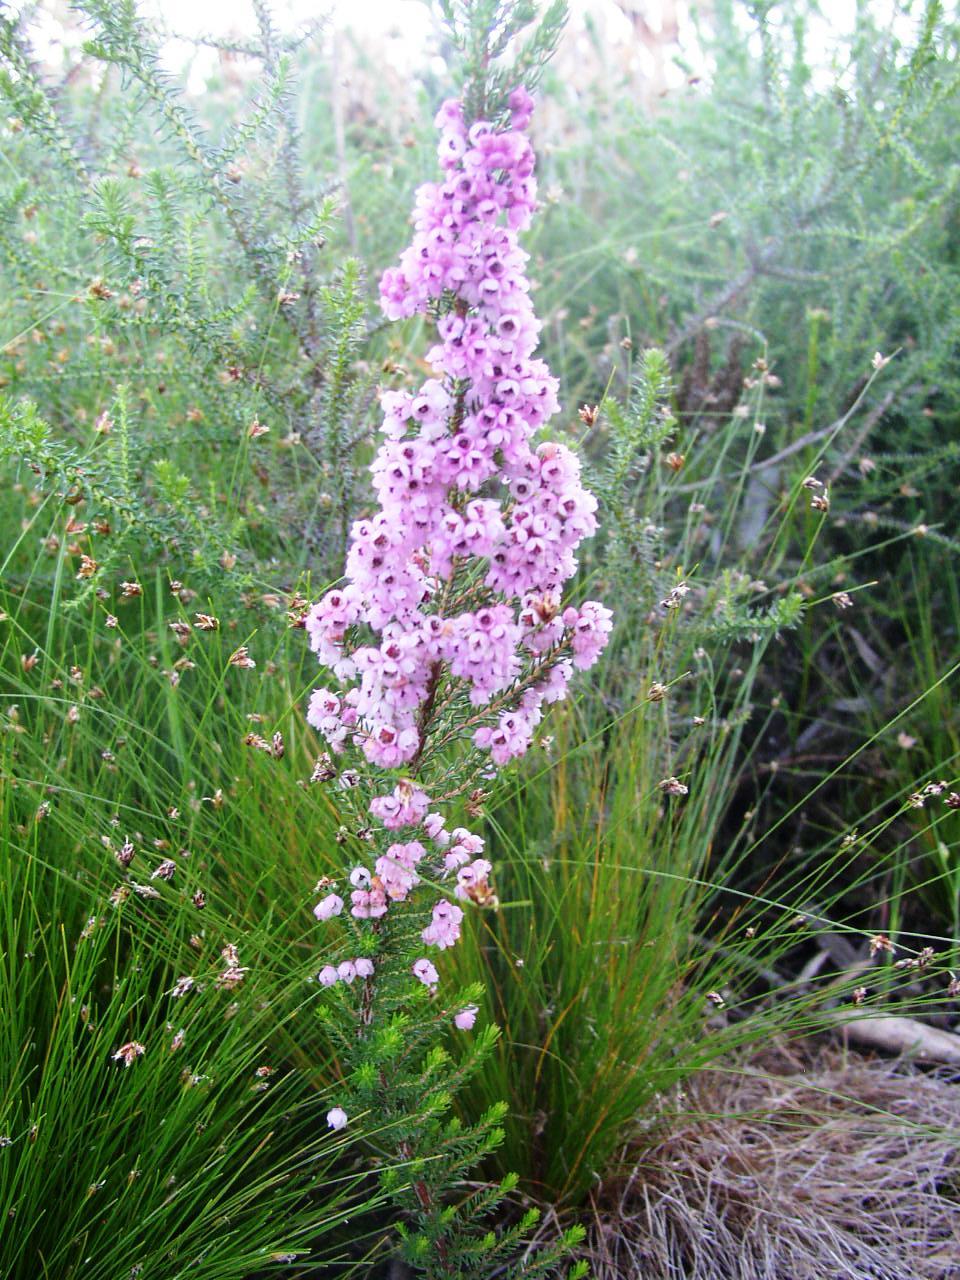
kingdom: Plantae
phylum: Tracheophyta
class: Magnoliopsida
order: Ericales
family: Ericaceae
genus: Erica
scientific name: Erica mauritanica
